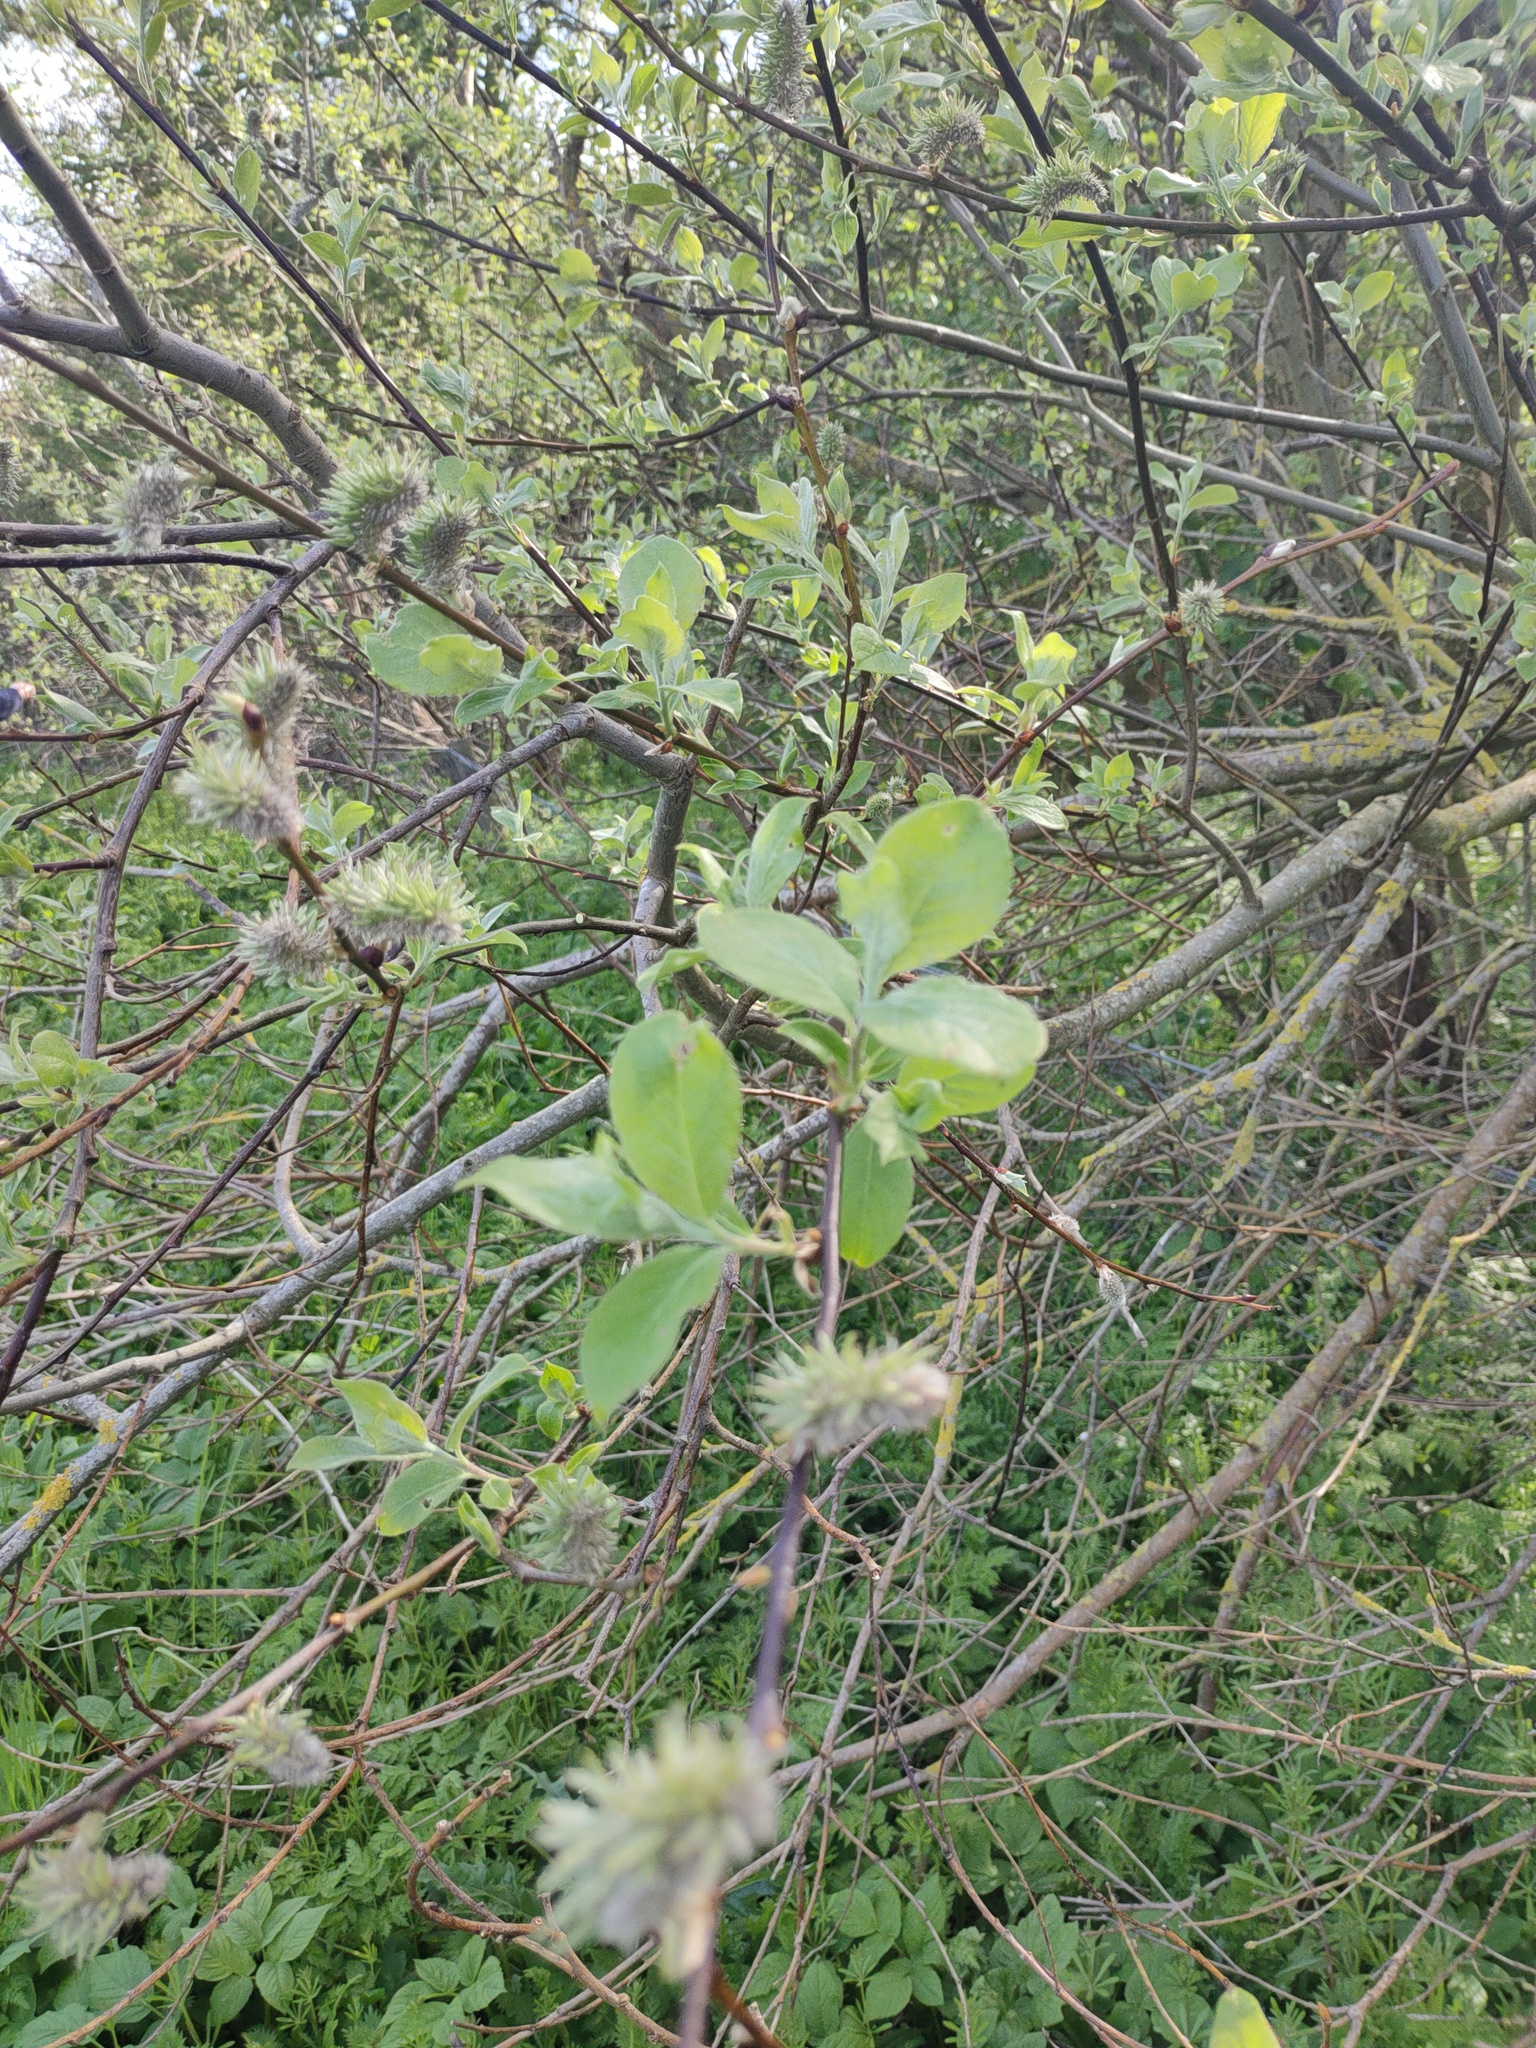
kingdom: Plantae
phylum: Tracheophyta
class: Magnoliopsida
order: Malpighiales
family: Salicaceae
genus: Salix
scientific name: Salix caprea
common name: Goat willow
